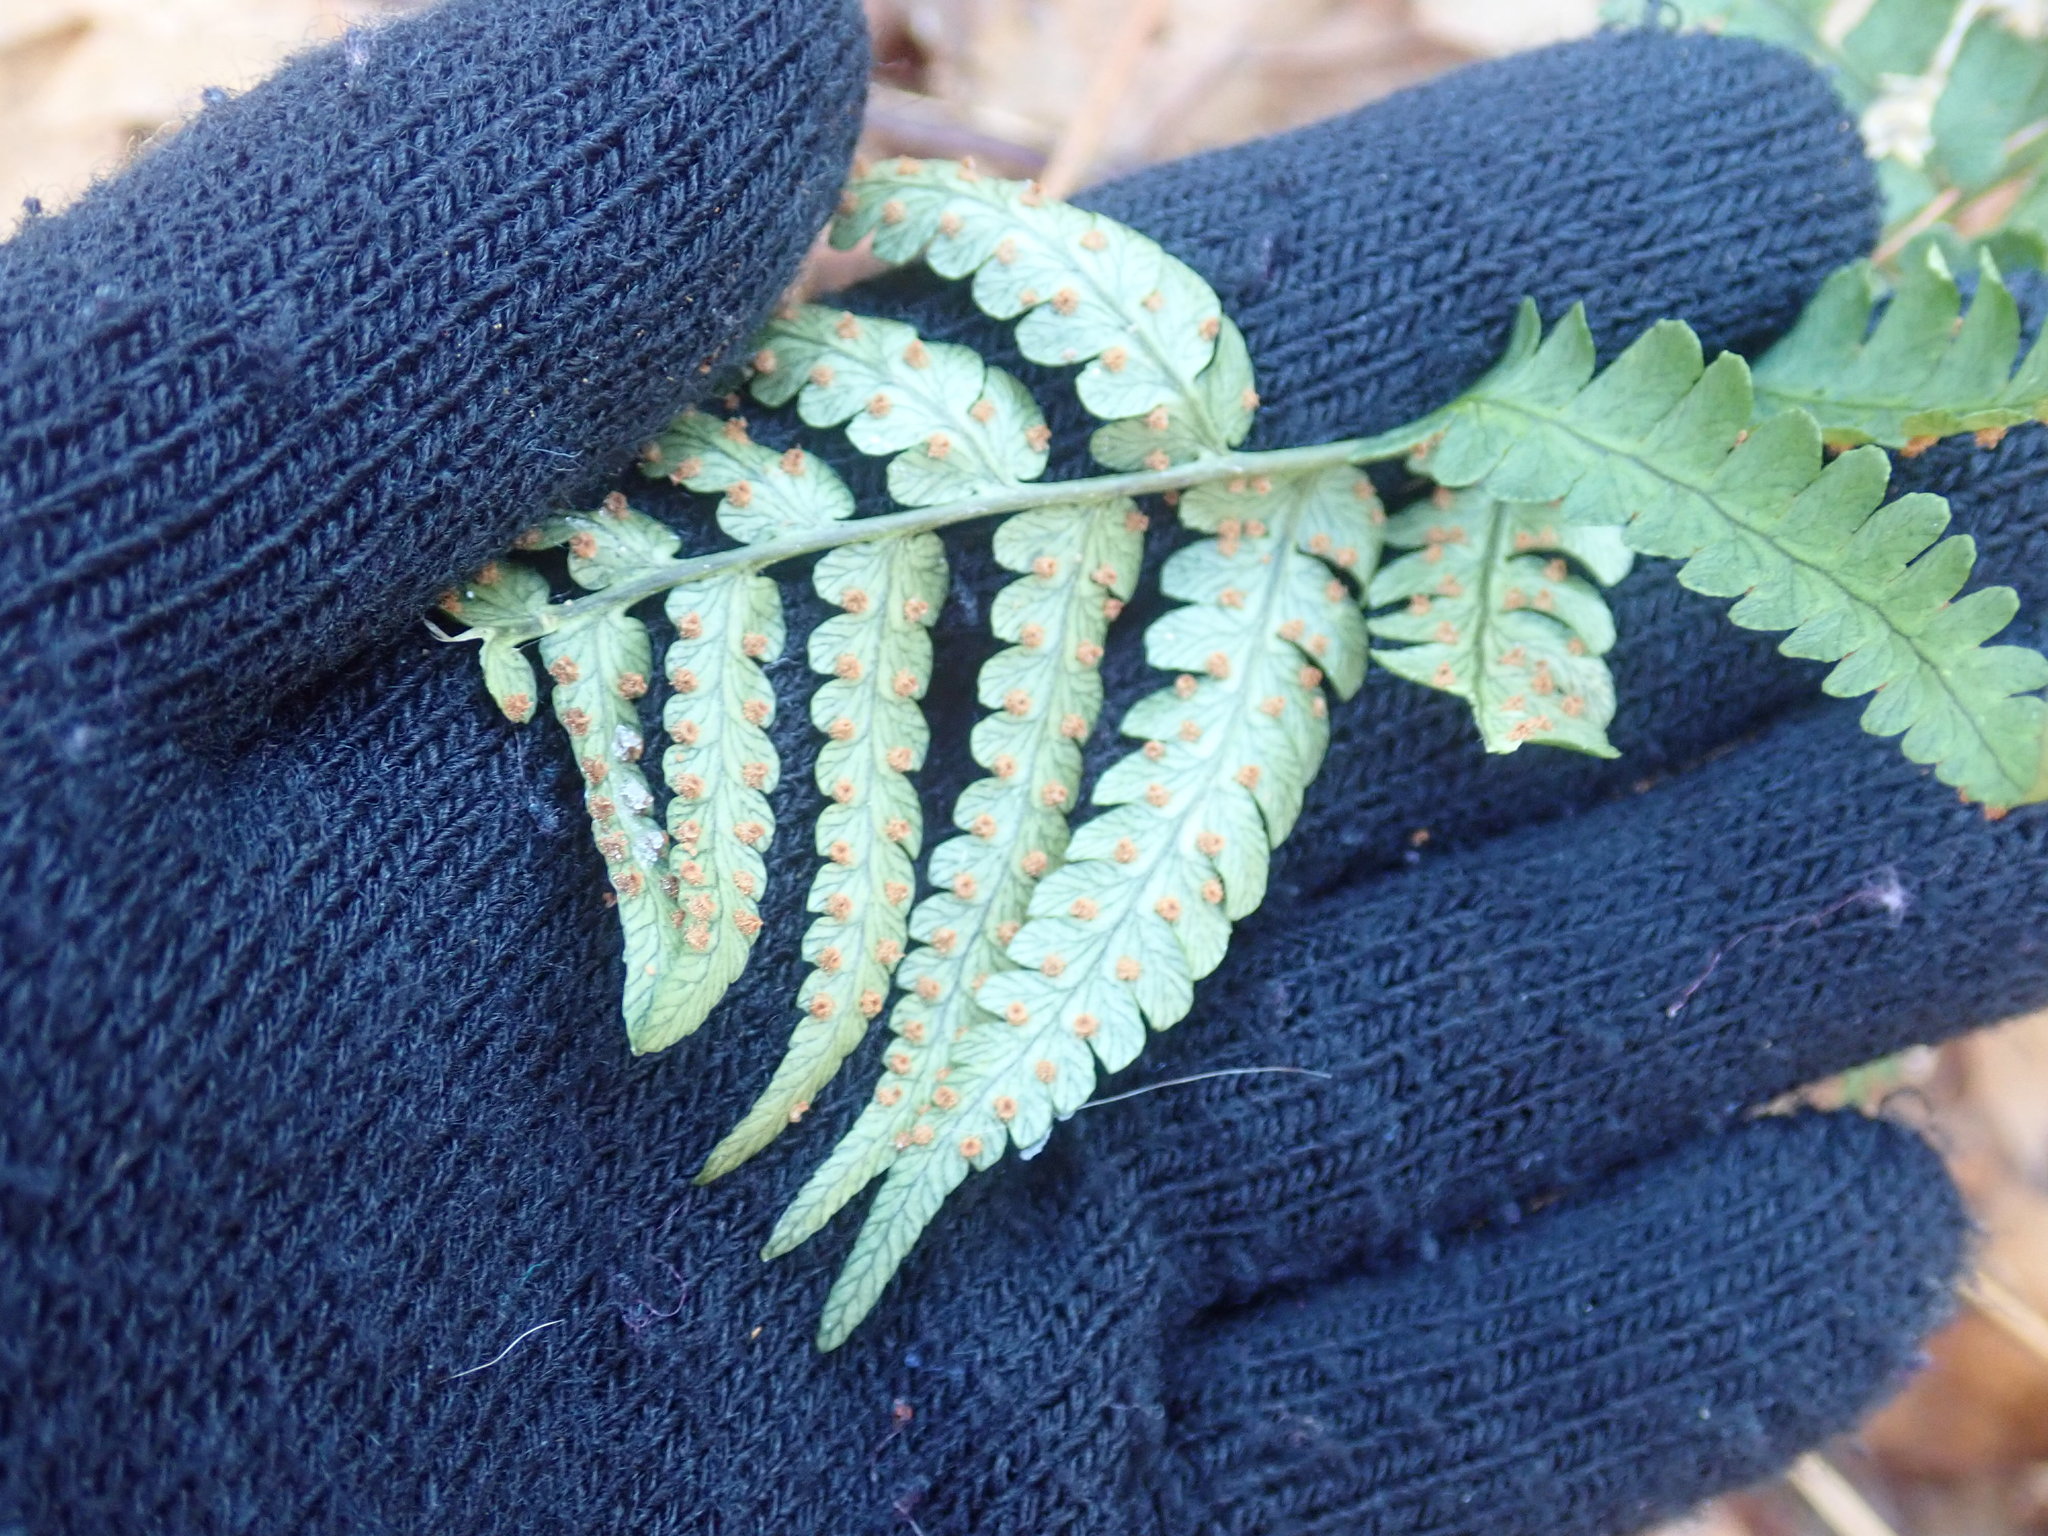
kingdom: Plantae
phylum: Tracheophyta
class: Polypodiopsida
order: Polypodiales
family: Dryopteridaceae
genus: Dryopteris
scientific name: Dryopteris marginalis
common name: Marginal wood fern
